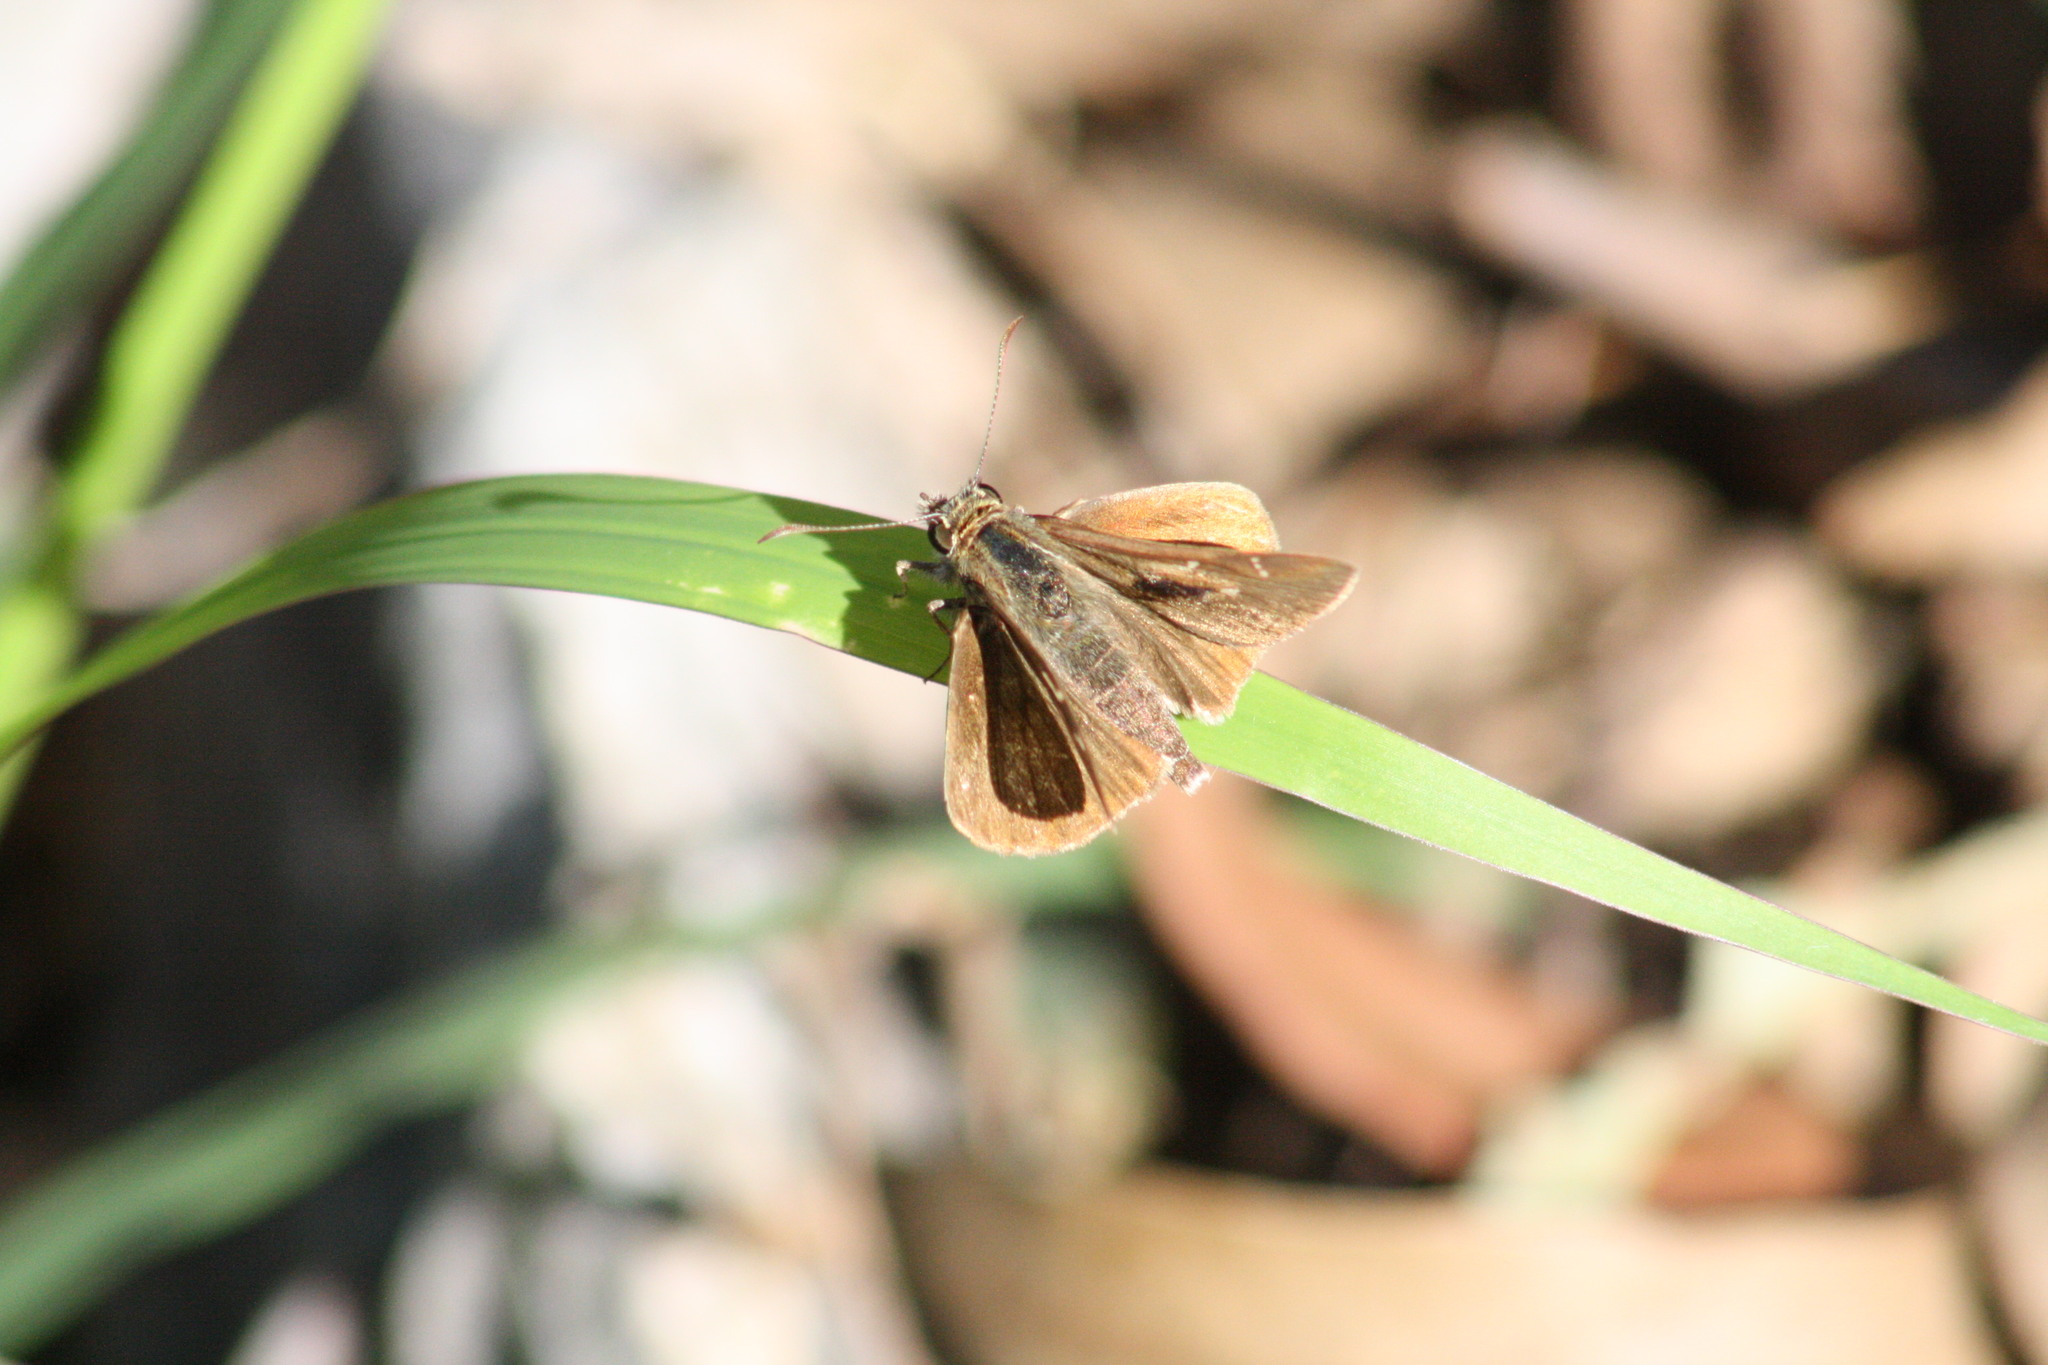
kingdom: Animalia
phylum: Arthropoda
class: Insecta
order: Lepidoptera
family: Hesperiidae
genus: Toxidia
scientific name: Toxidia
